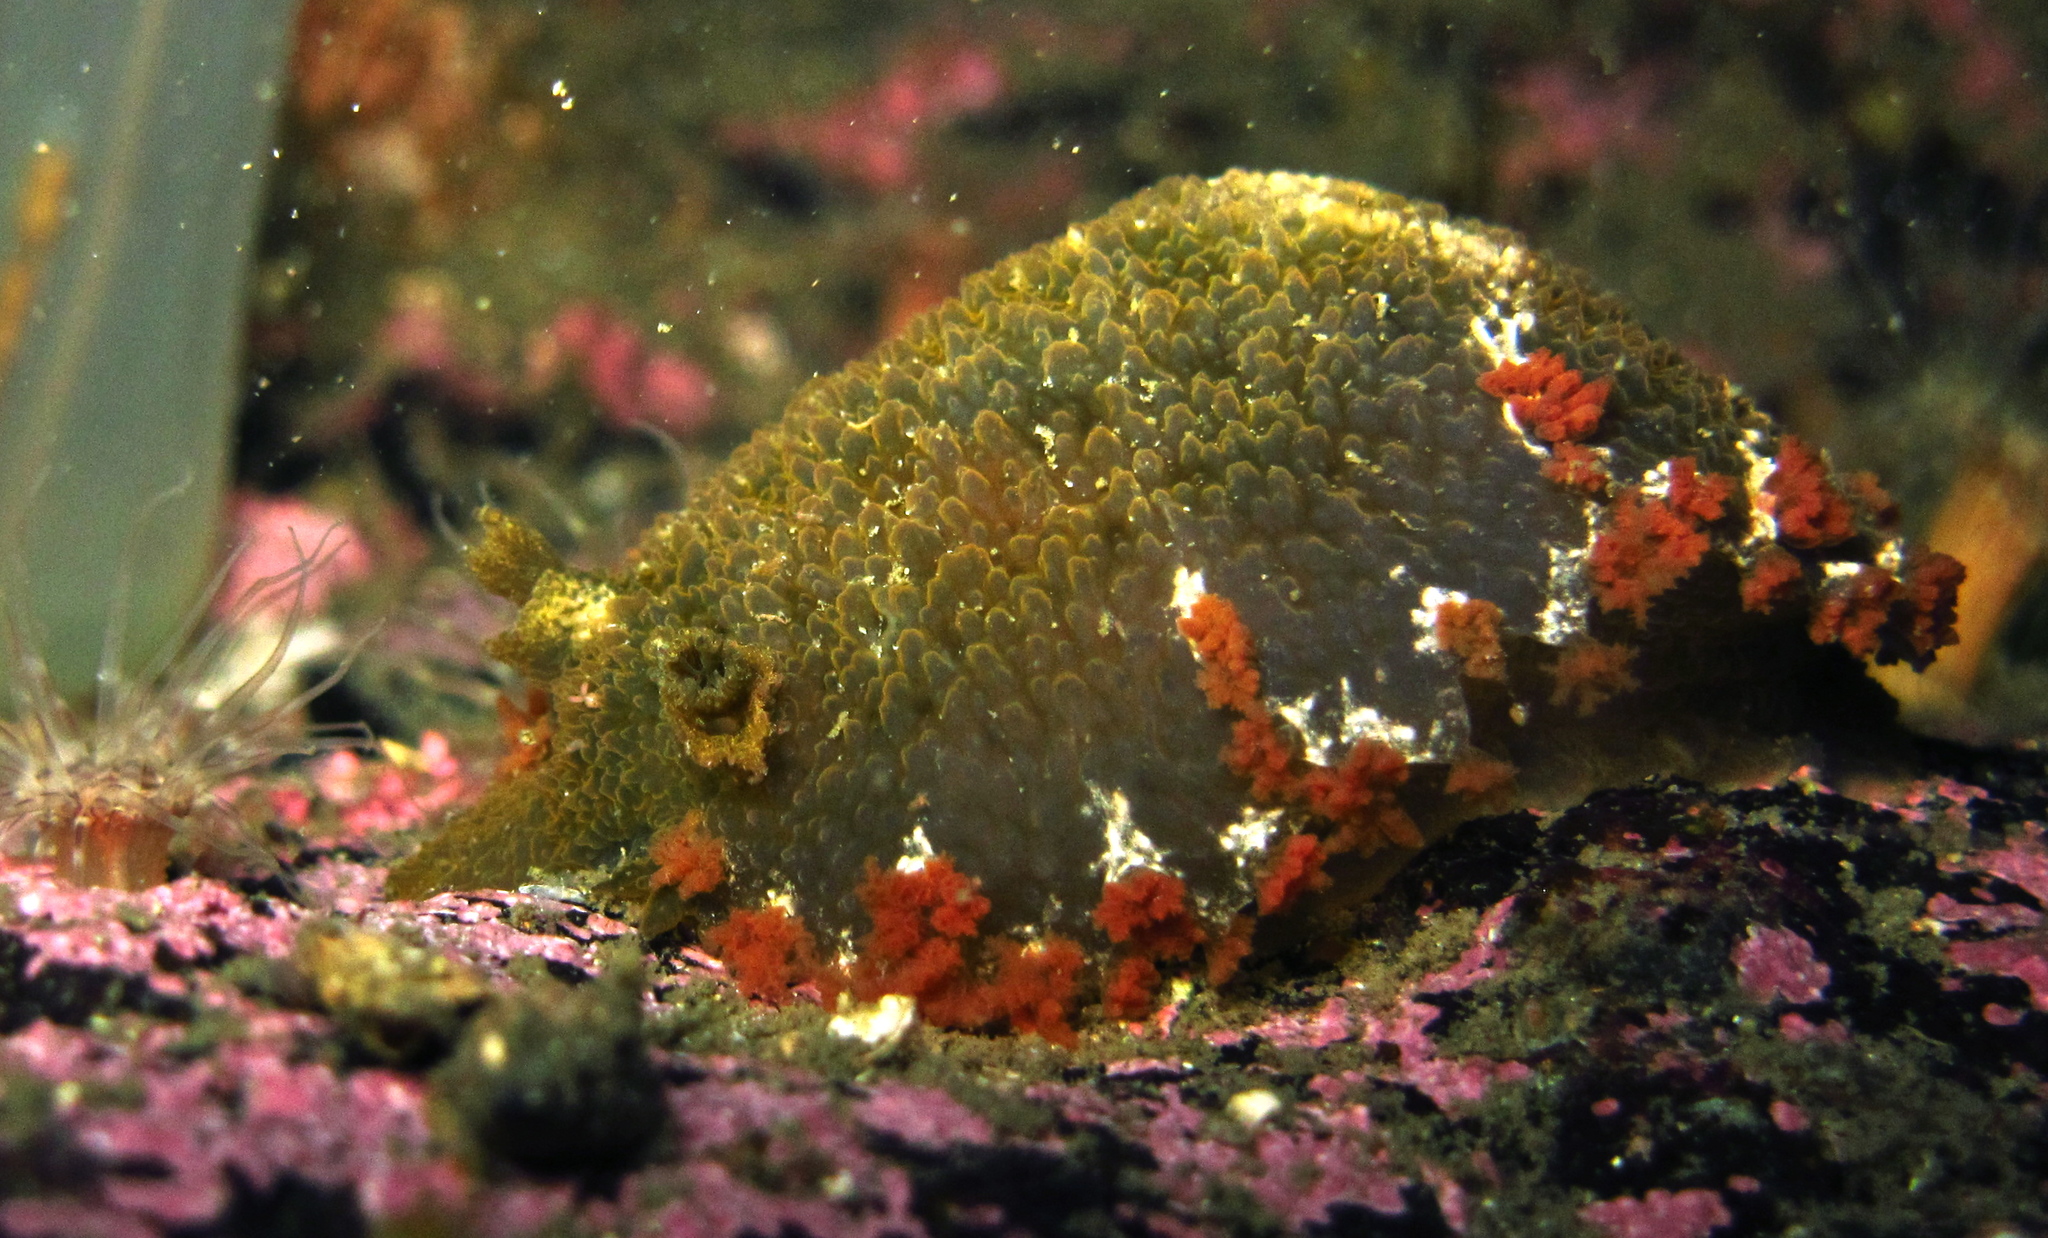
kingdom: Animalia
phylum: Mollusca
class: Gastropoda
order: Nudibranchia
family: Tritoniidae
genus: Tritonia
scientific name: Tritonia hombergii
